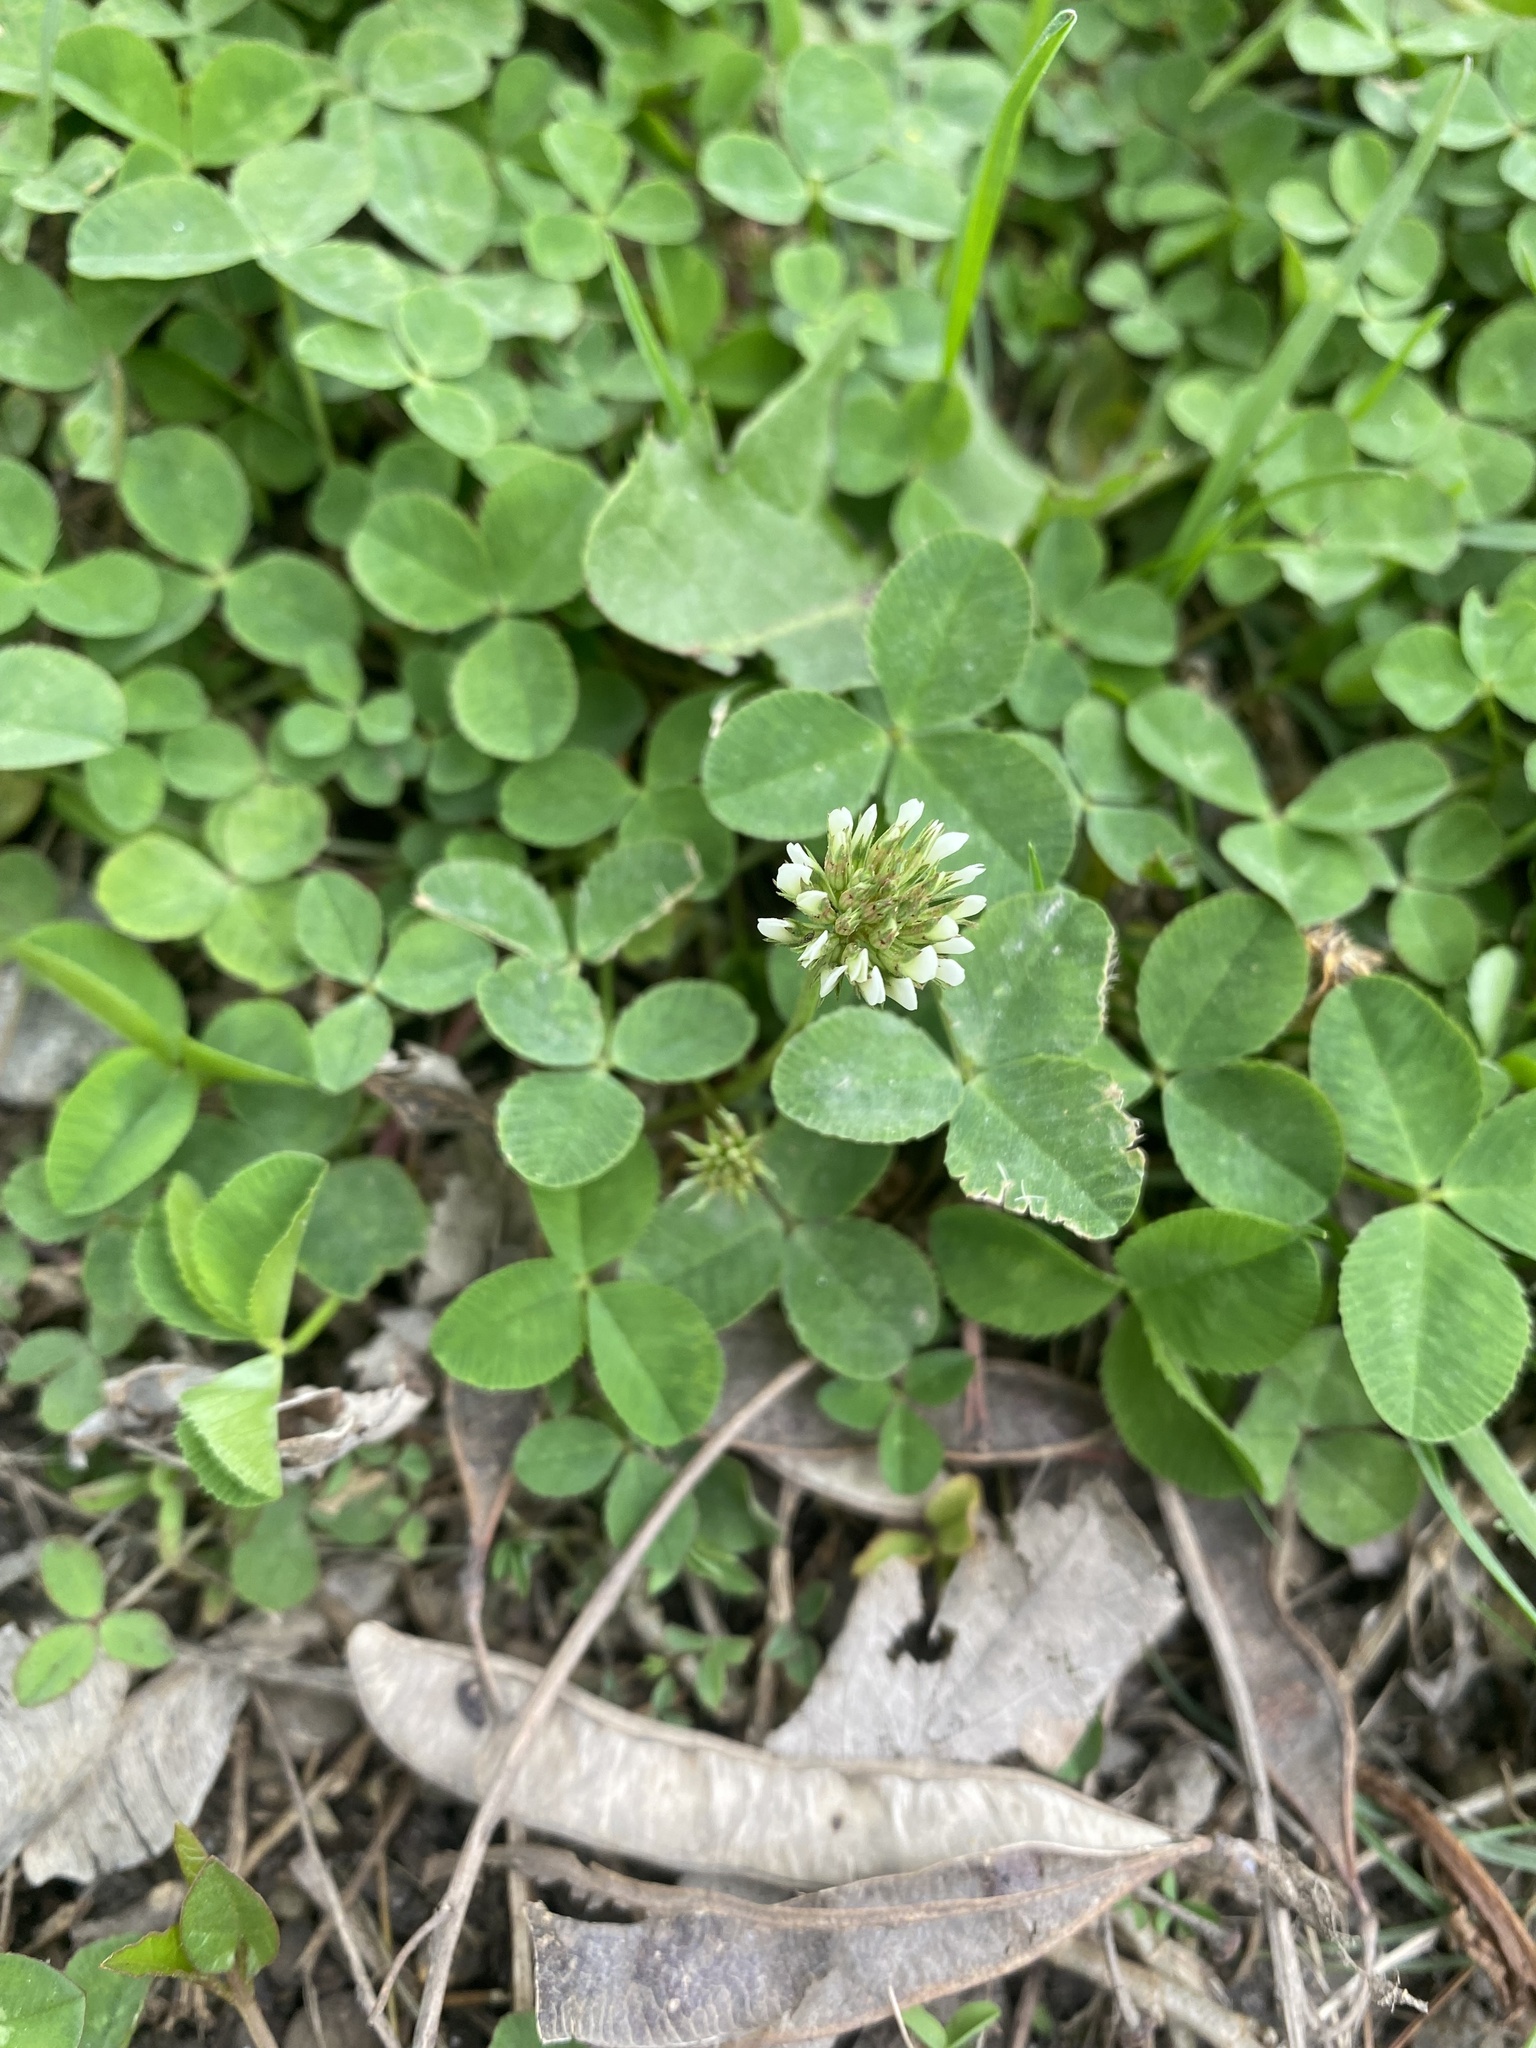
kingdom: Plantae
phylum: Tracheophyta
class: Magnoliopsida
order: Fabales
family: Fabaceae
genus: Trifolium
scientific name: Trifolium repens
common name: White clover
